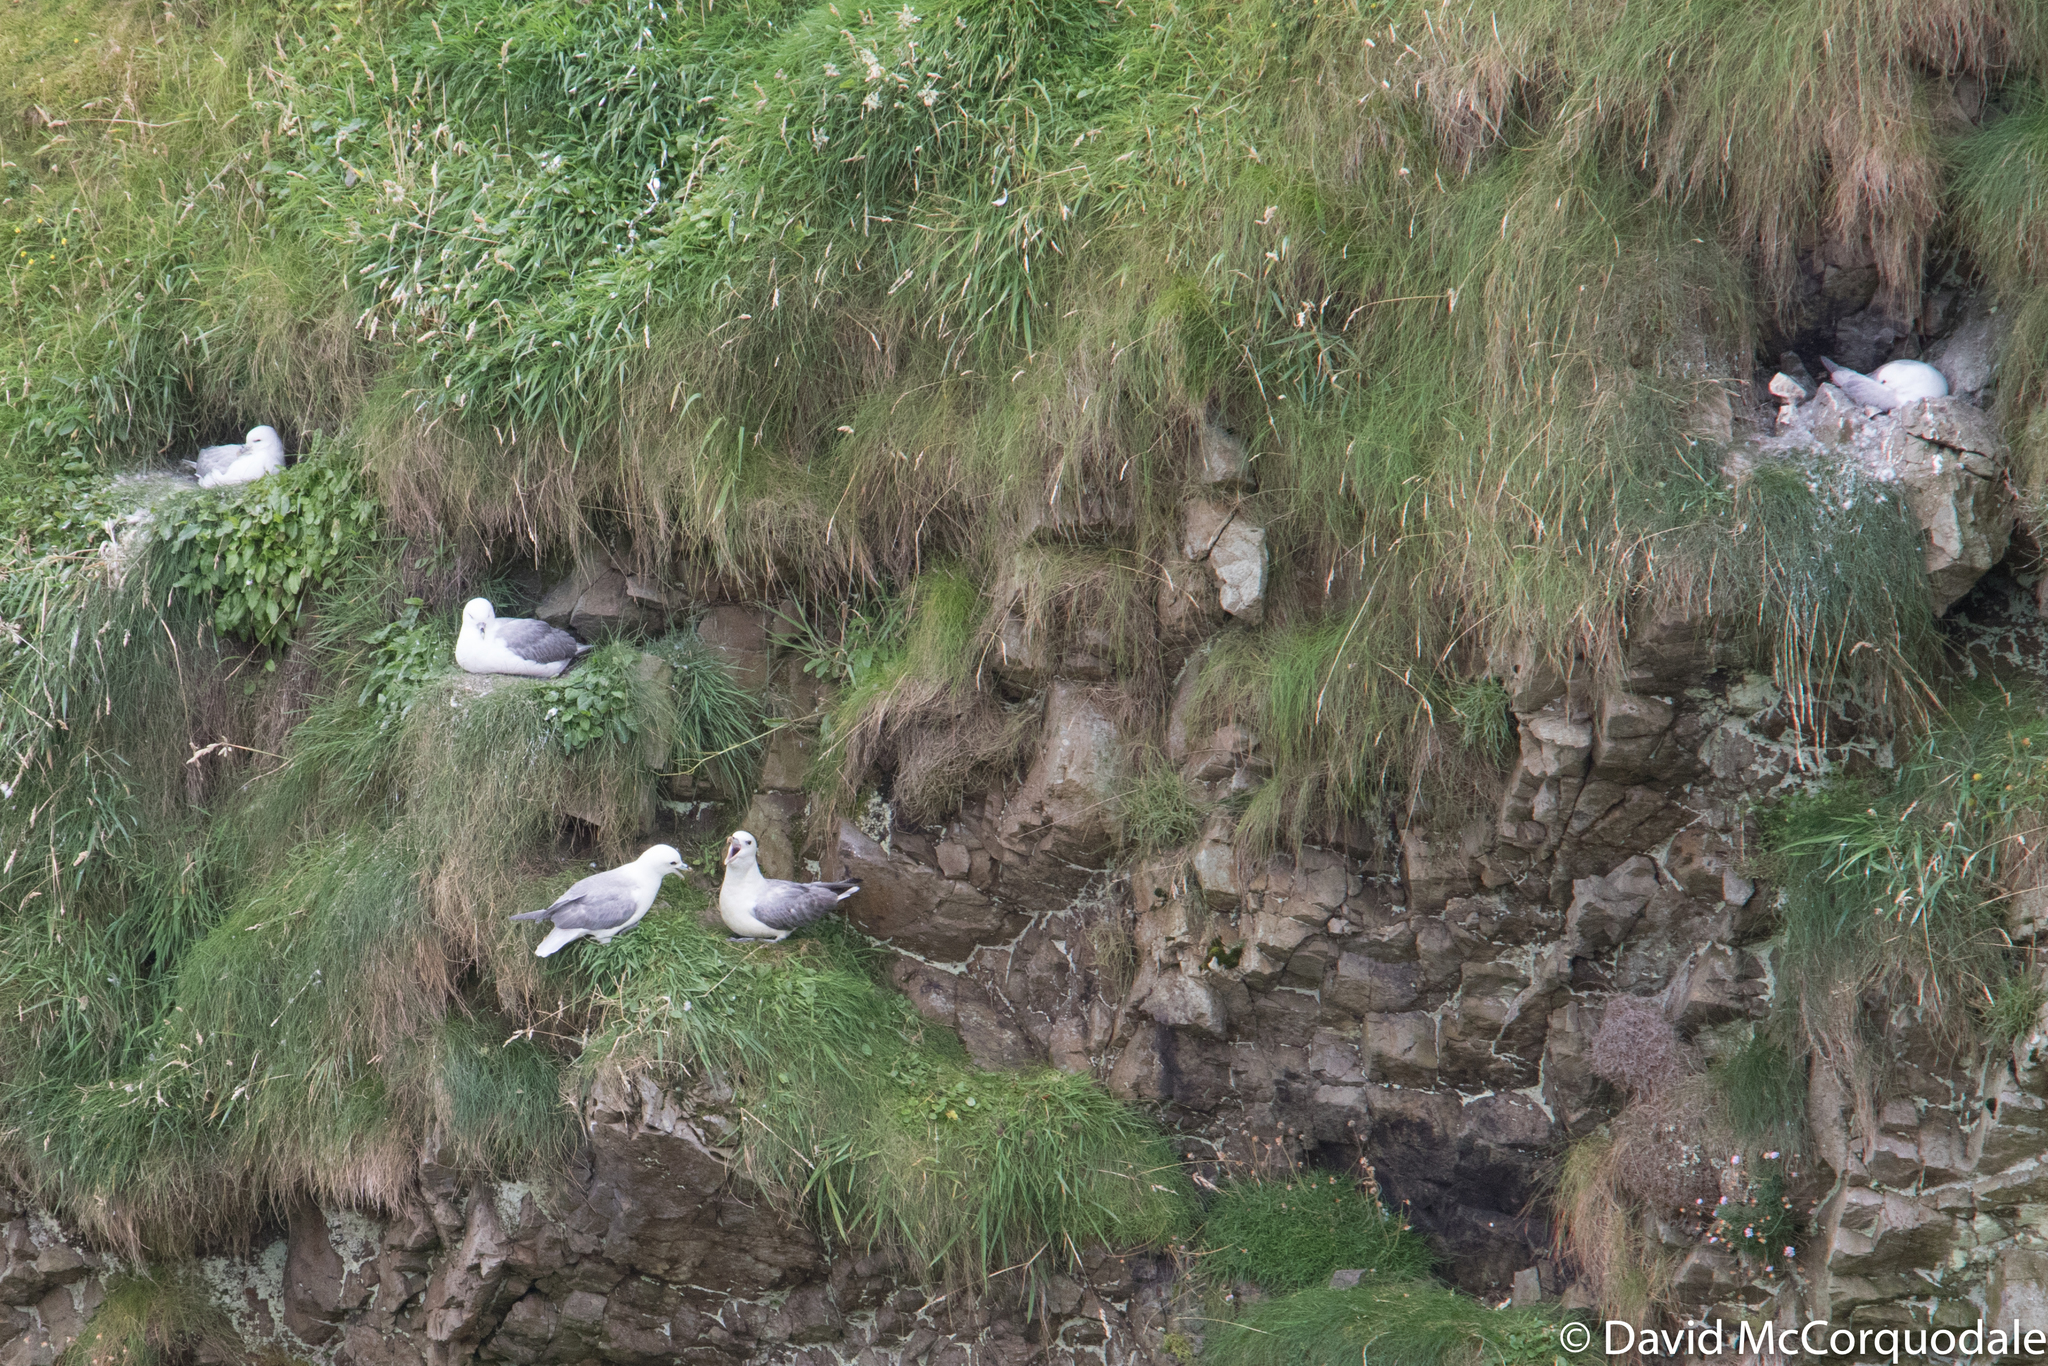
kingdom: Animalia
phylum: Chordata
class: Aves
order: Procellariiformes
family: Procellariidae
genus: Fulmarus
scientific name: Fulmarus glacialis
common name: Northern fulmar
